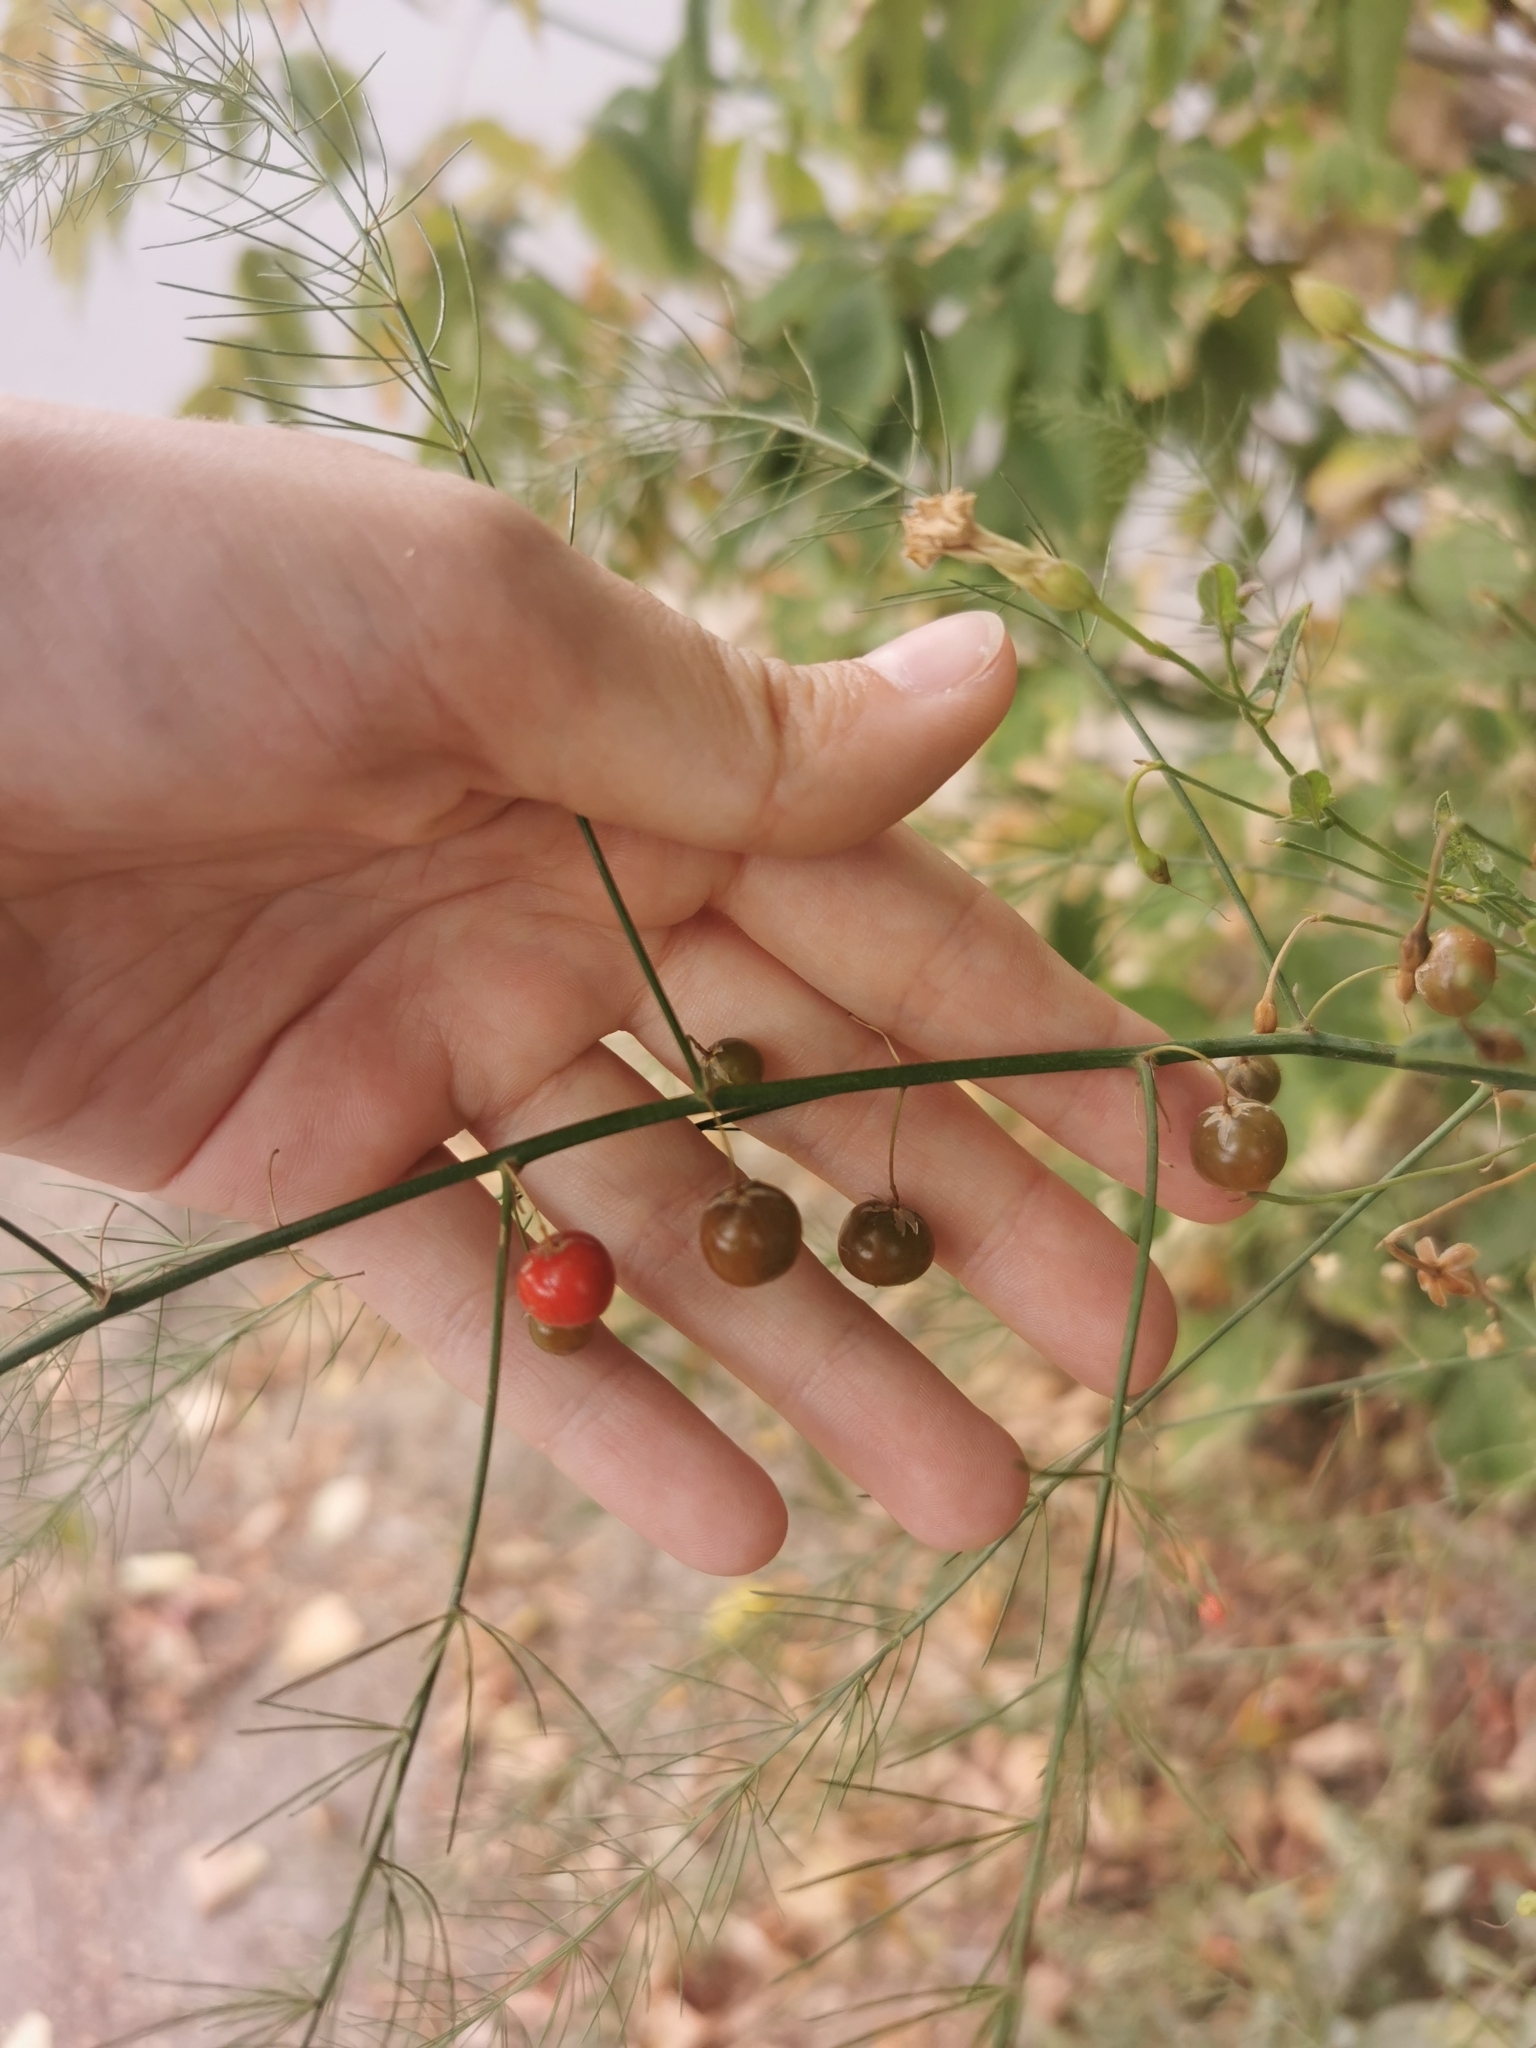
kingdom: Plantae
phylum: Tracheophyta
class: Liliopsida
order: Asparagales
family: Asparagaceae
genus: Asparagus
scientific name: Asparagus officinalis
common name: Garden asparagus
